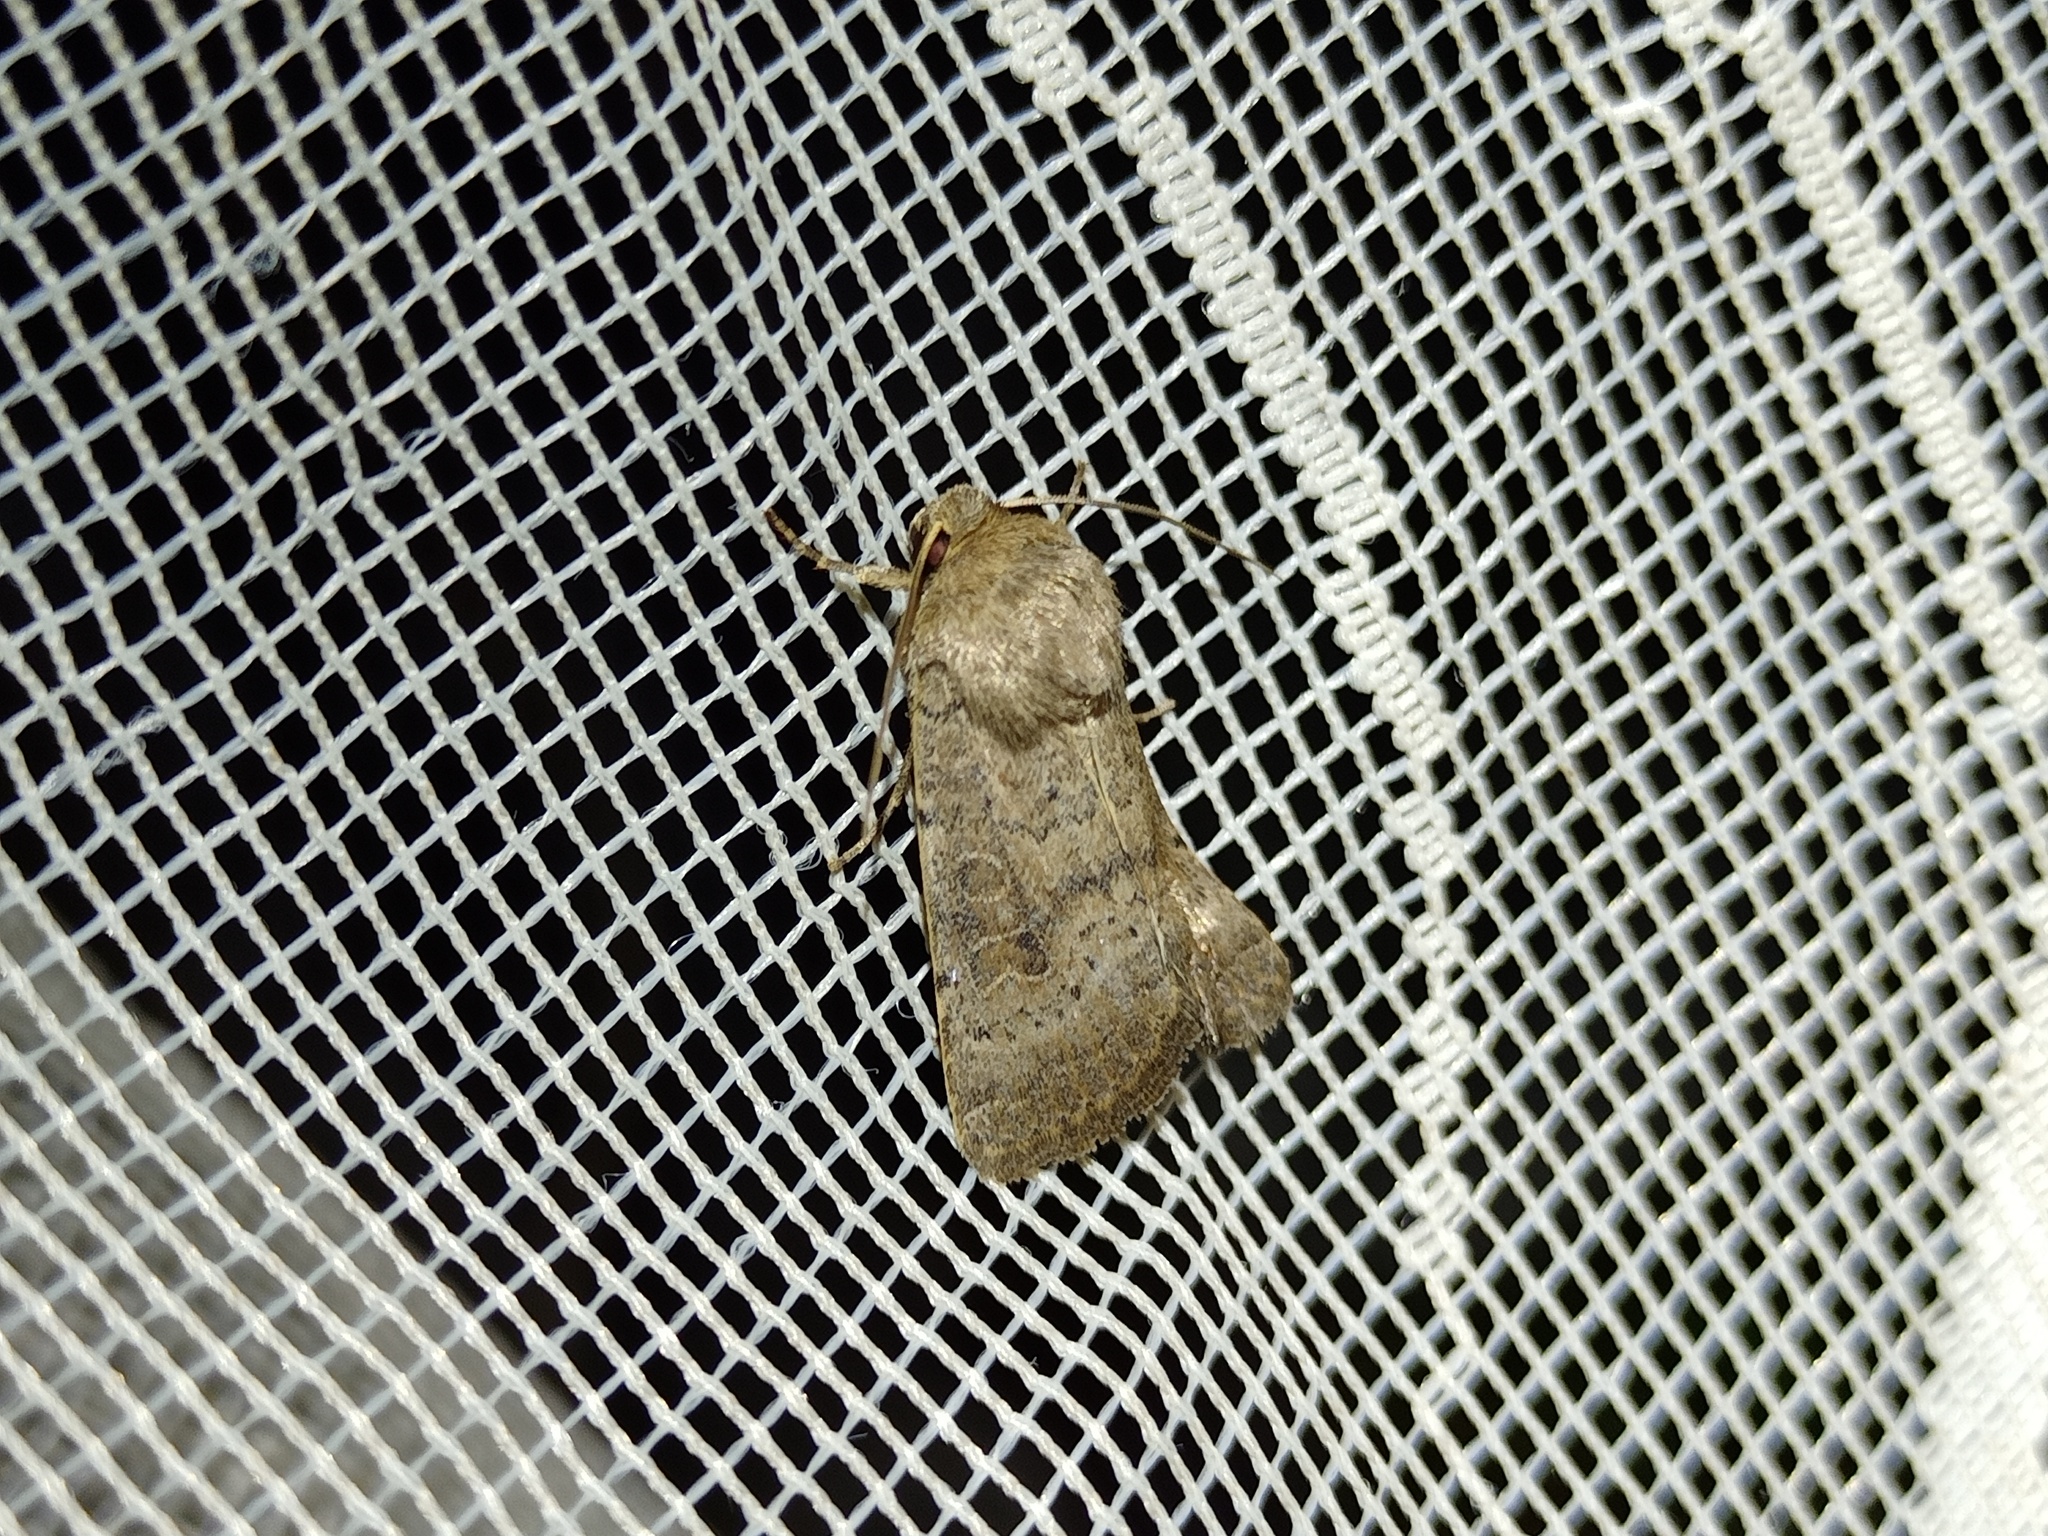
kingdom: Animalia
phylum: Arthropoda
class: Insecta
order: Lepidoptera
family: Noctuidae
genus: Hoplodrina
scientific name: Hoplodrina blanda
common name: Rustic
